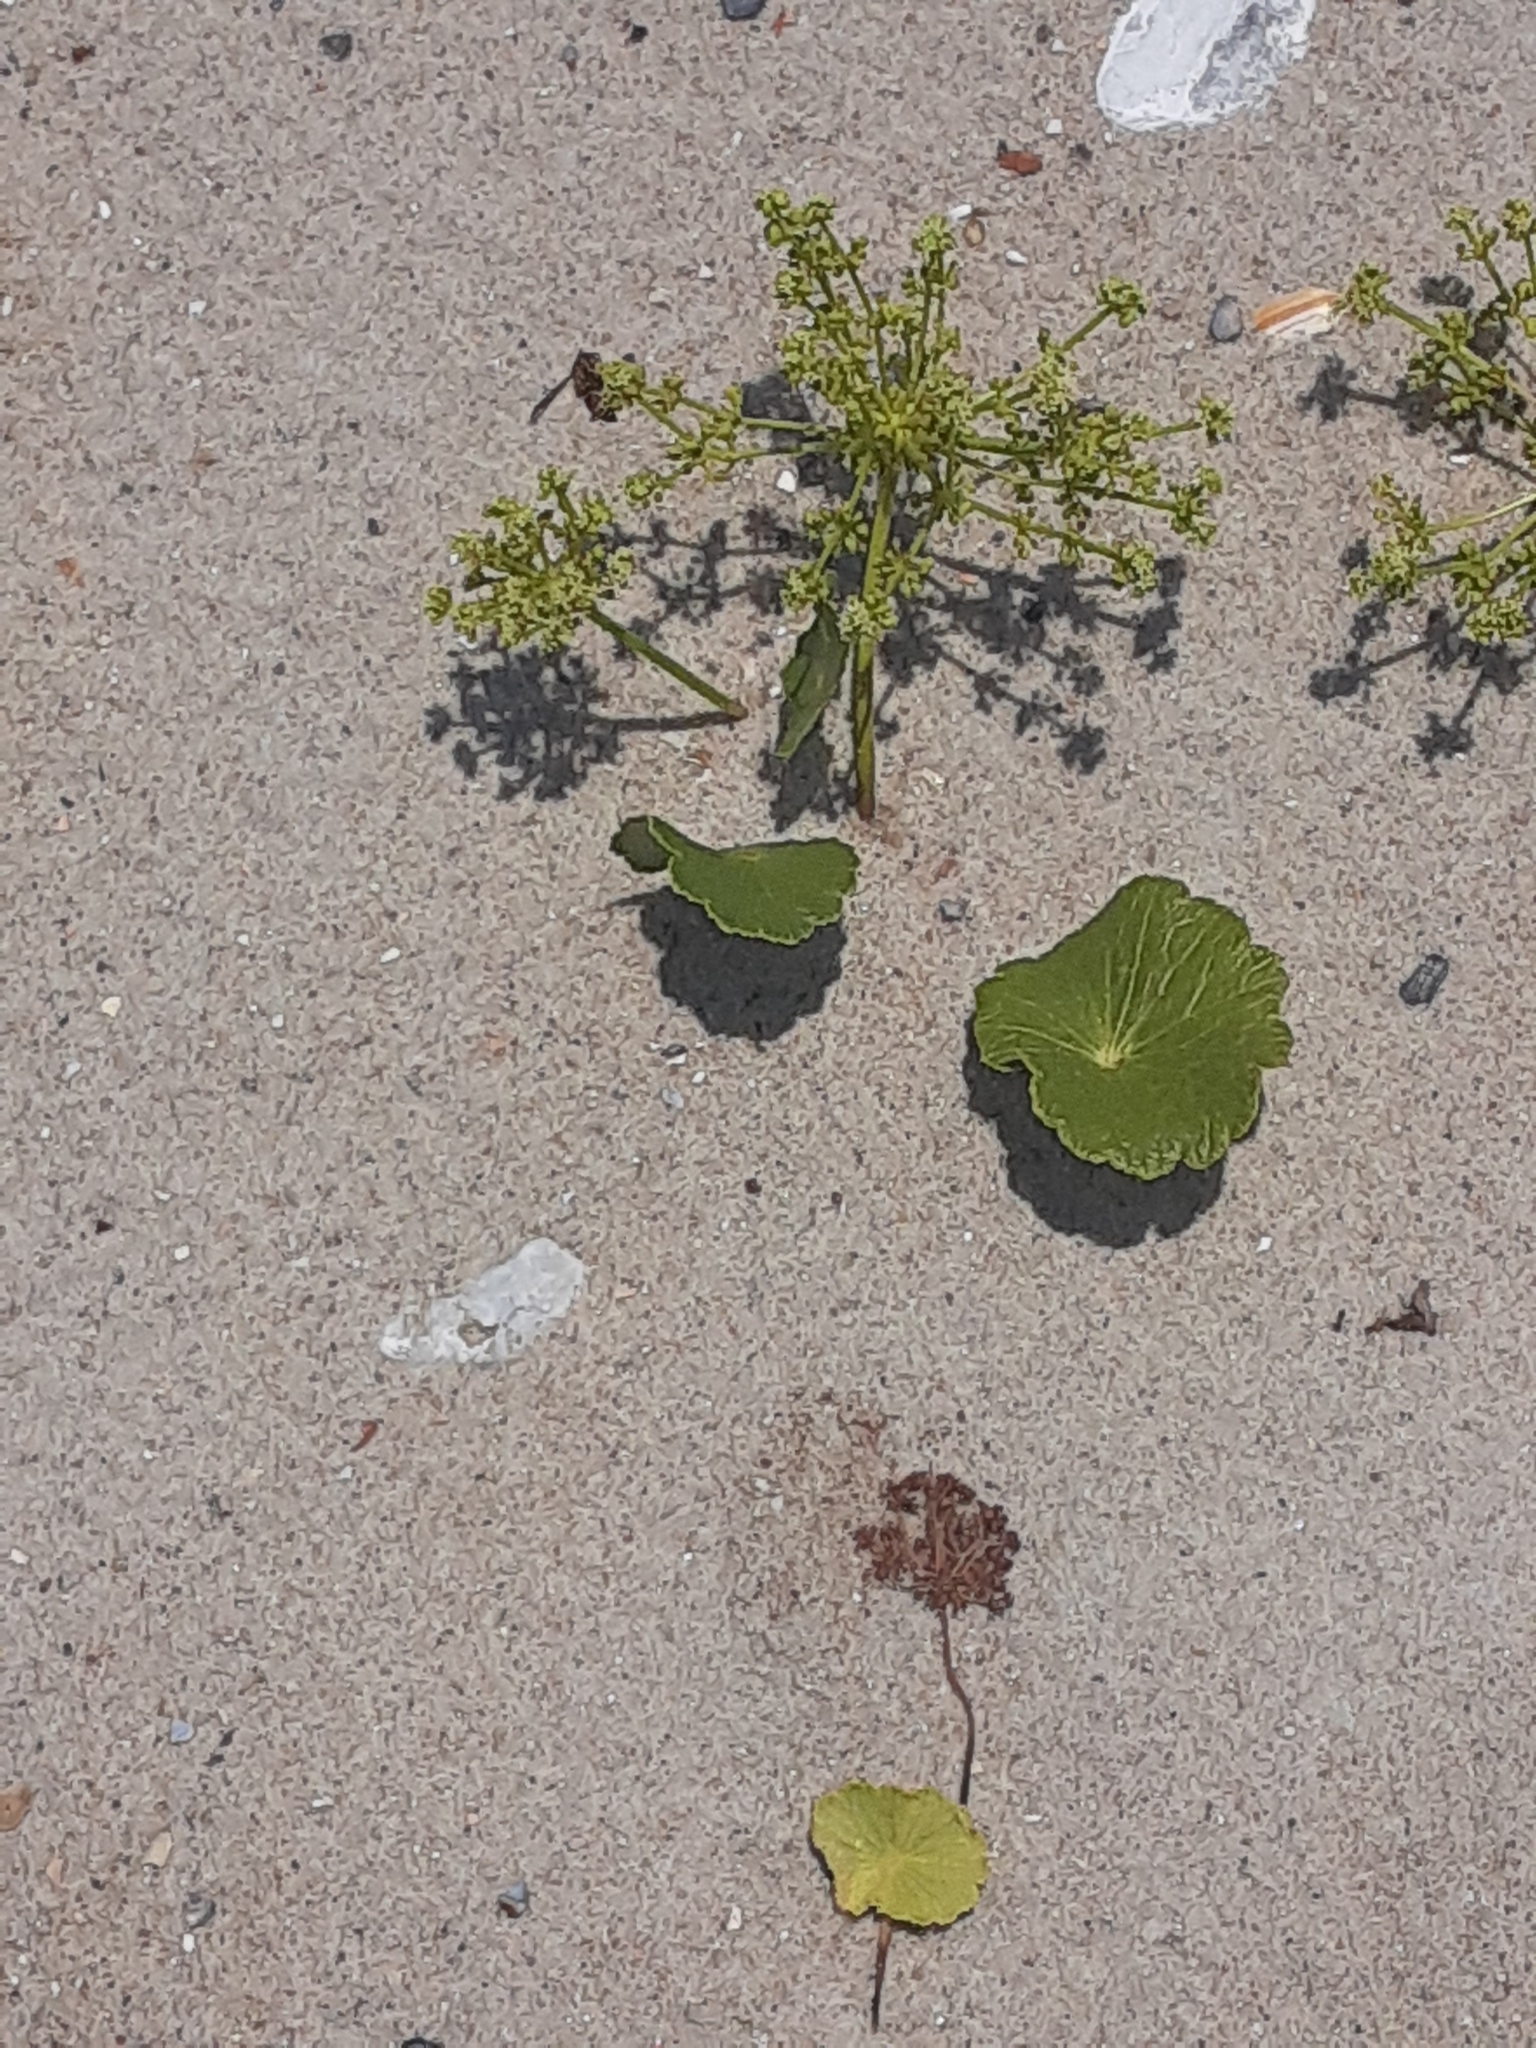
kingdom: Plantae
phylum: Tracheophyta
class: Magnoliopsida
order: Apiales
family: Araliaceae
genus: Hydrocotyle
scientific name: Hydrocotyle bonariensis
